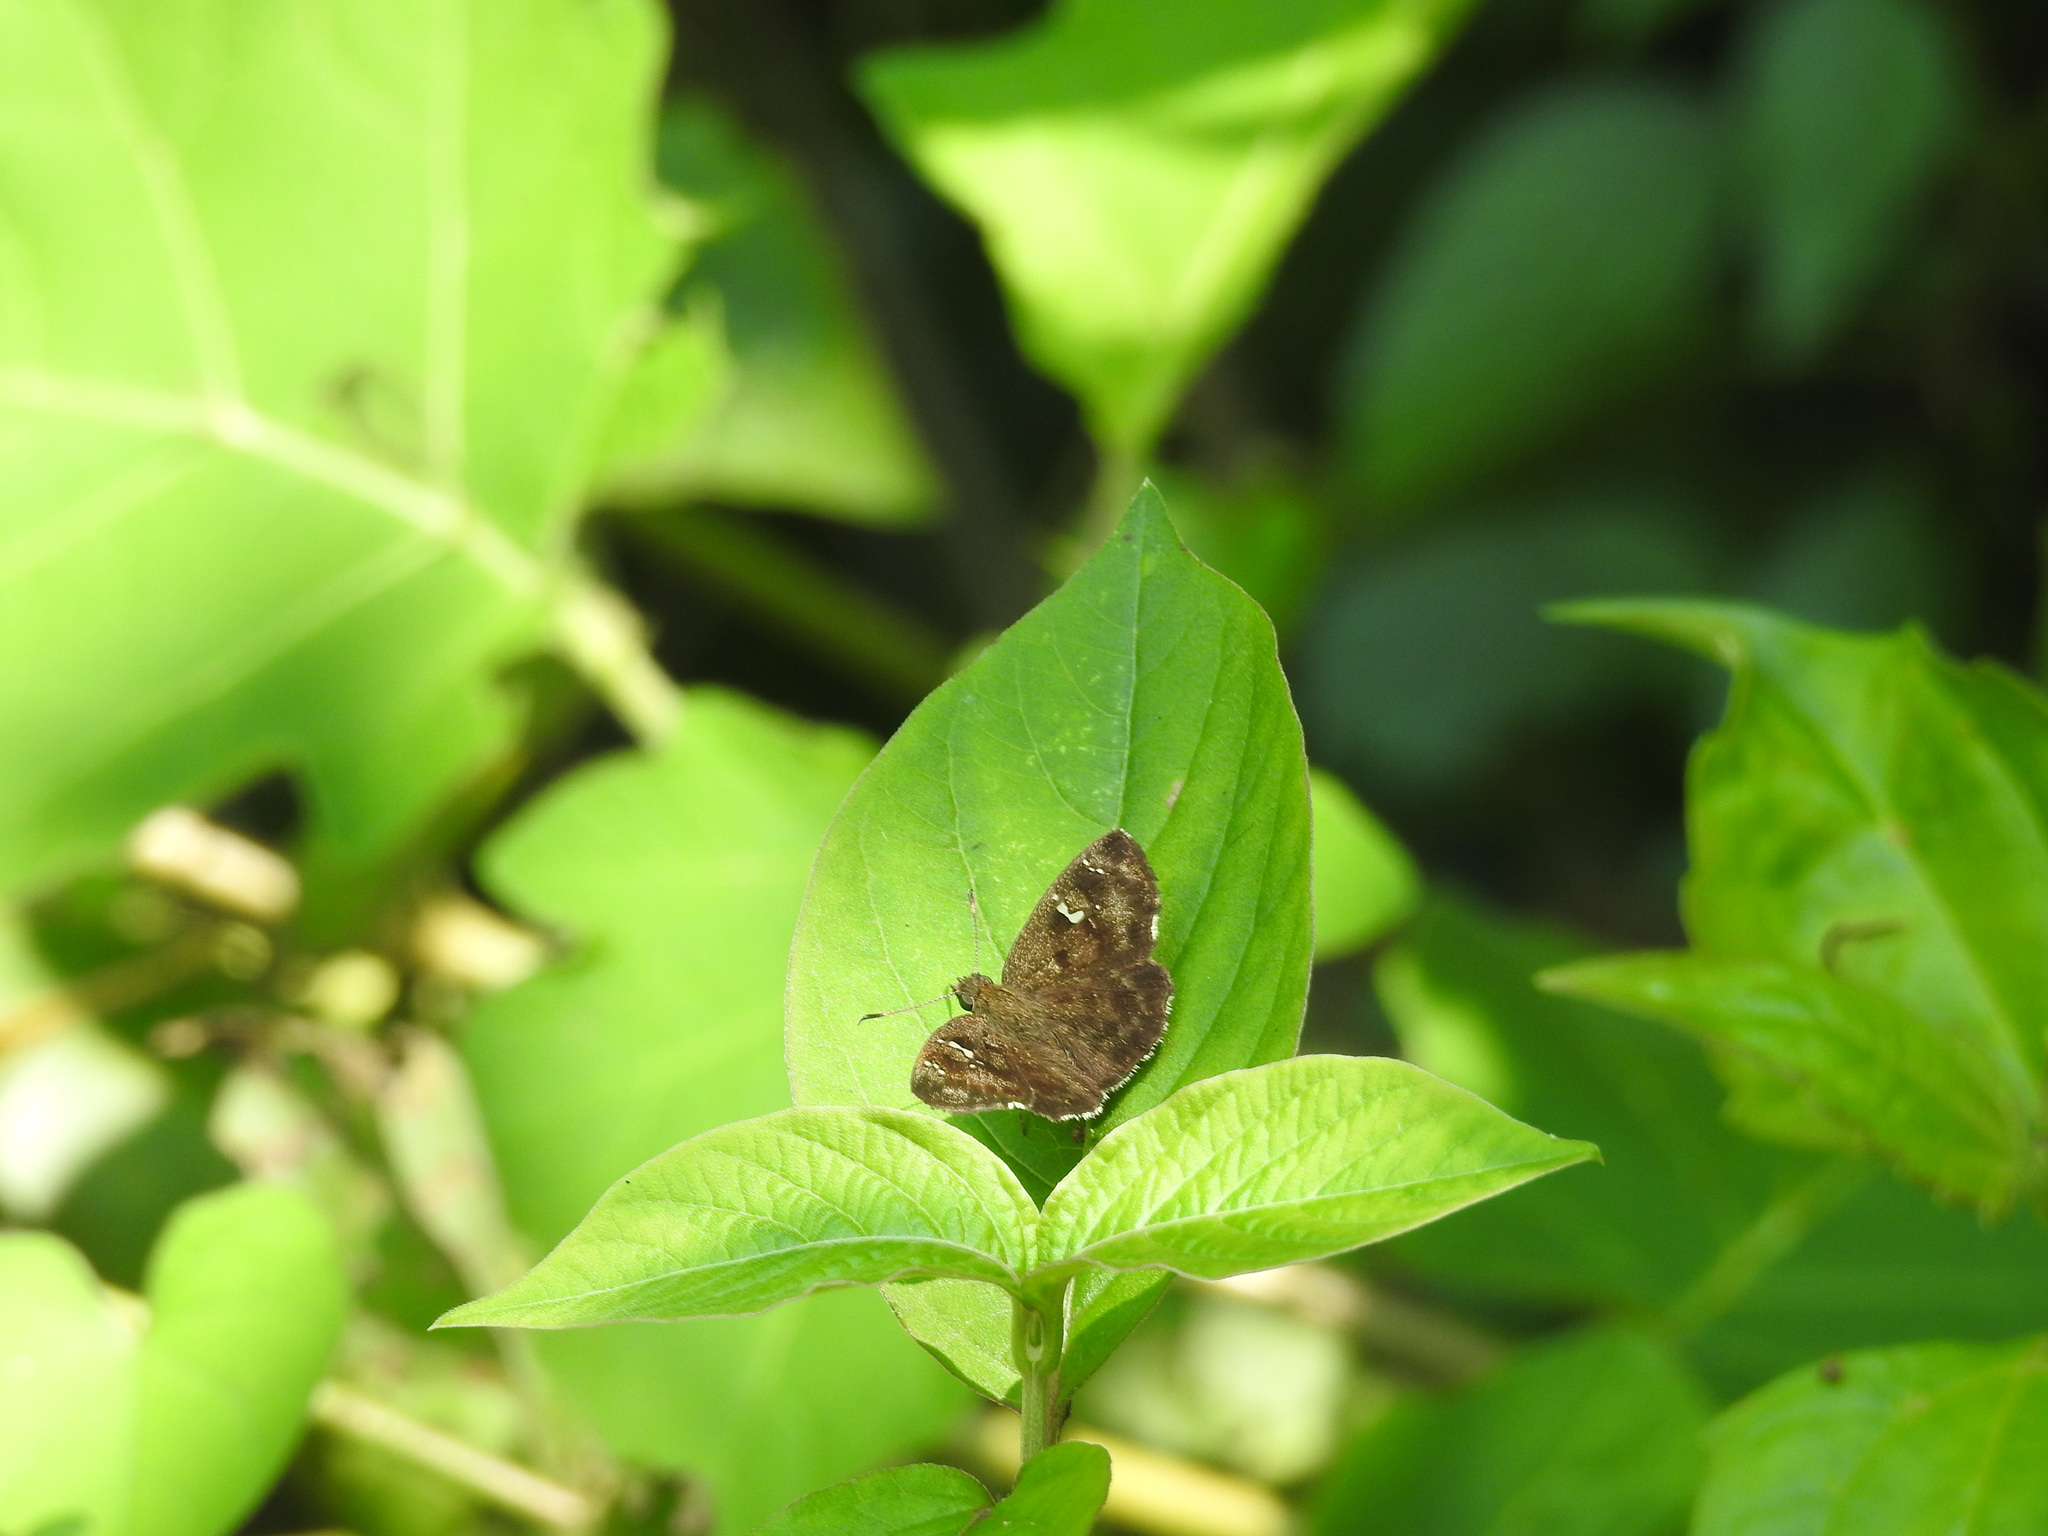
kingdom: Animalia
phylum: Arthropoda
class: Insecta
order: Lepidoptera
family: Hesperiidae
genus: Sarangesa
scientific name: Sarangesa dasahara
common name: Common small flat
